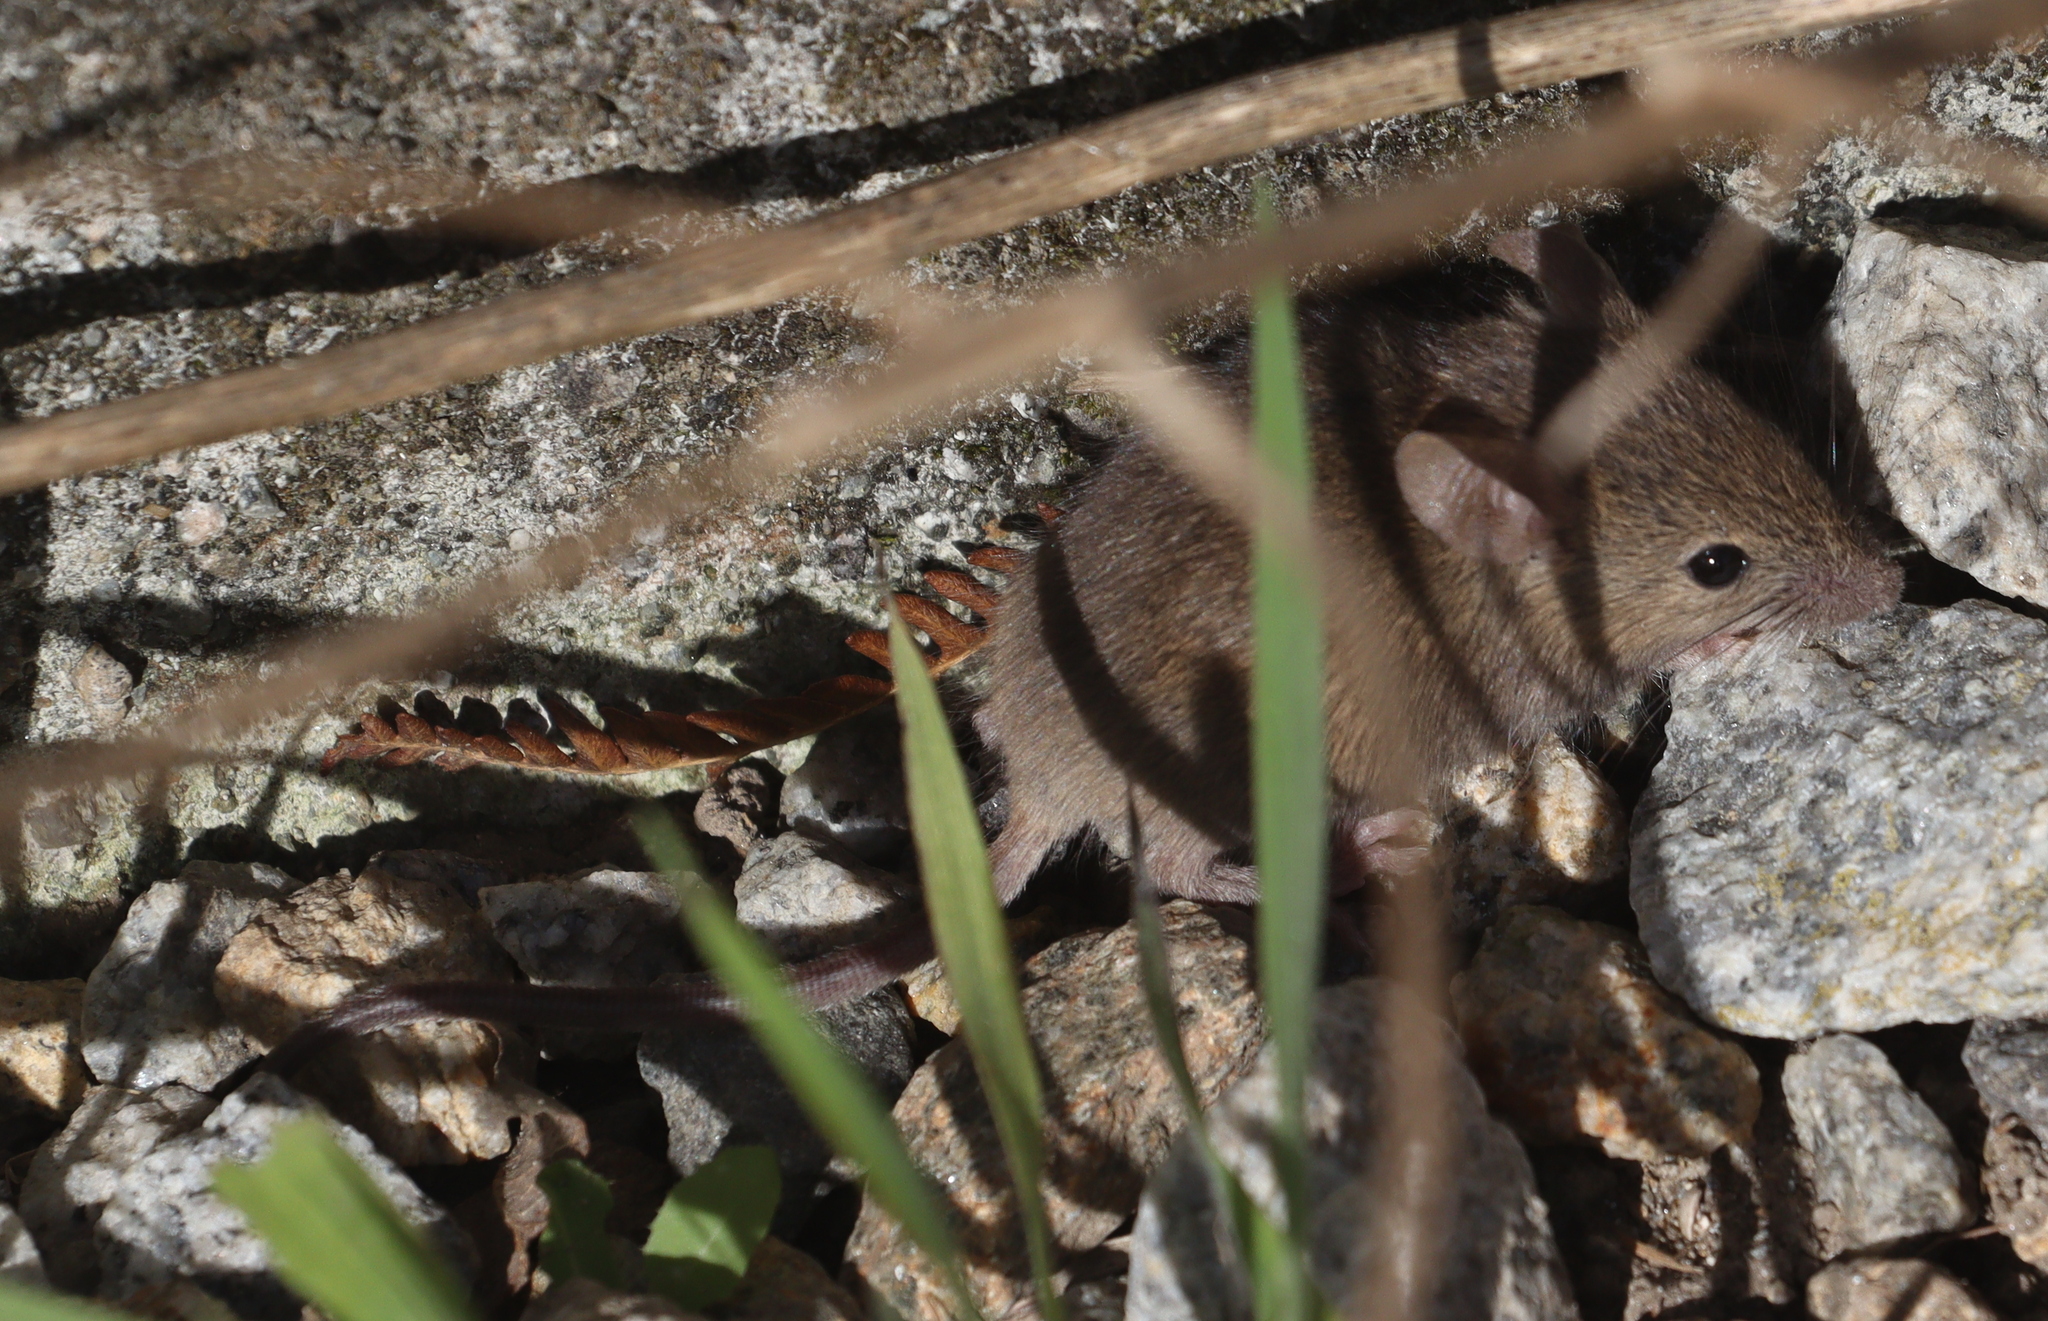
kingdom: Animalia
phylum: Chordata
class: Mammalia
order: Rodentia
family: Muridae
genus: Mus
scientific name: Mus musculus
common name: House mouse
